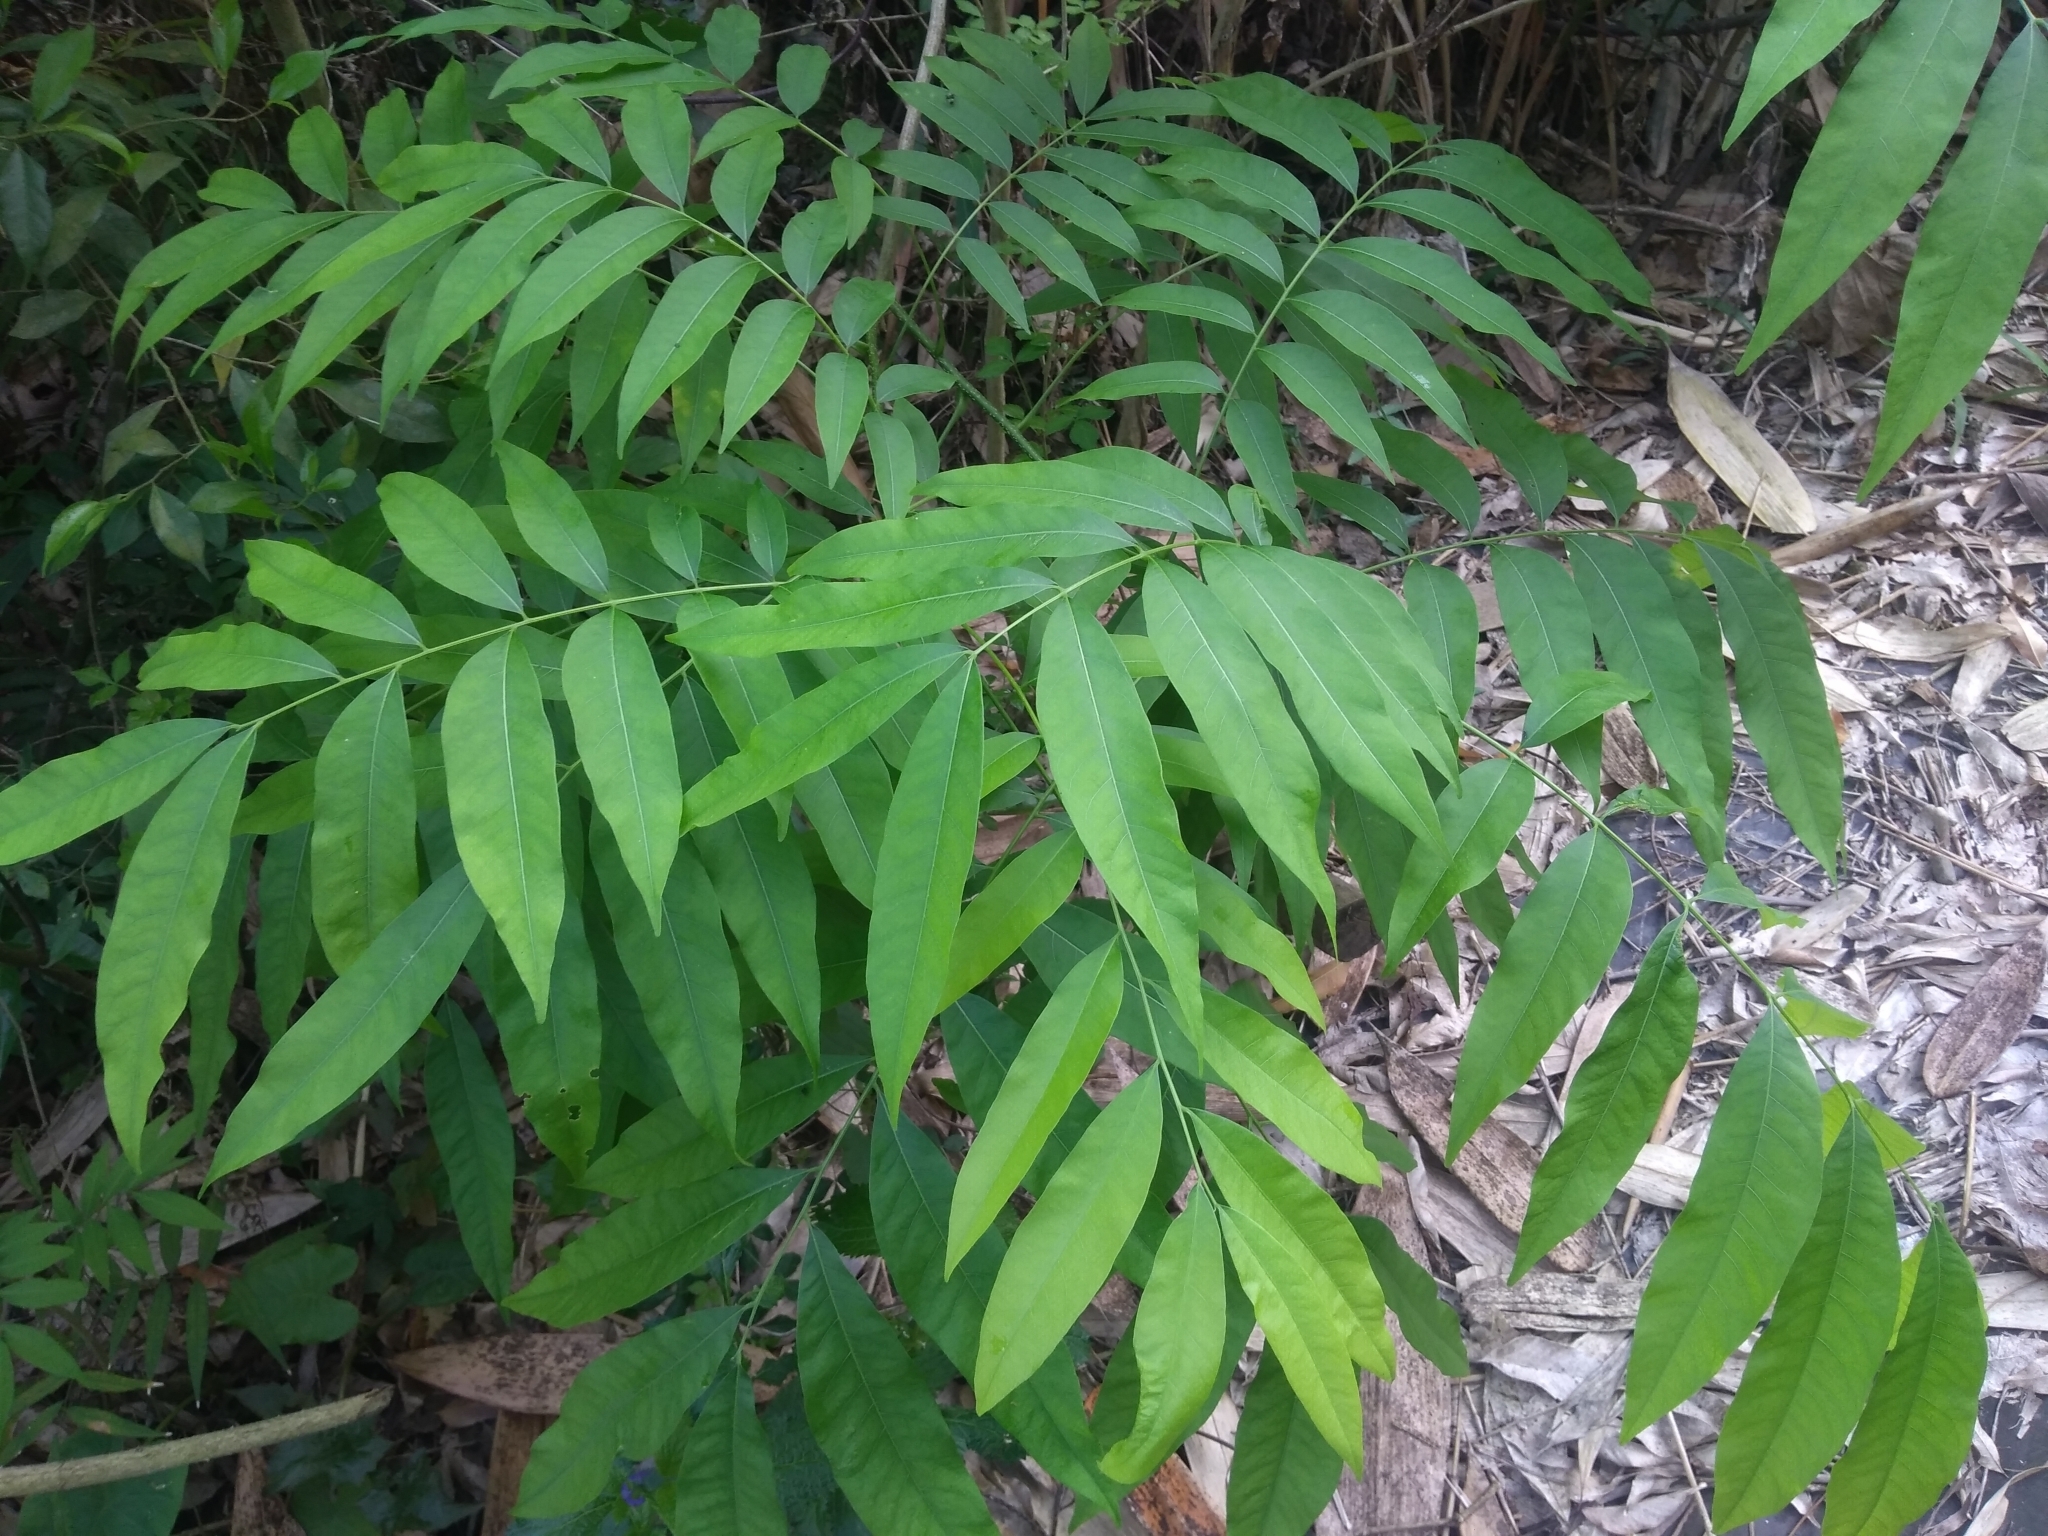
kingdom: Plantae
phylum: Tracheophyta
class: Magnoliopsida
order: Sapindales
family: Sapindaceae
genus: Sapindus
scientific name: Sapindus mukorossi
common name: Chinese soapberry
